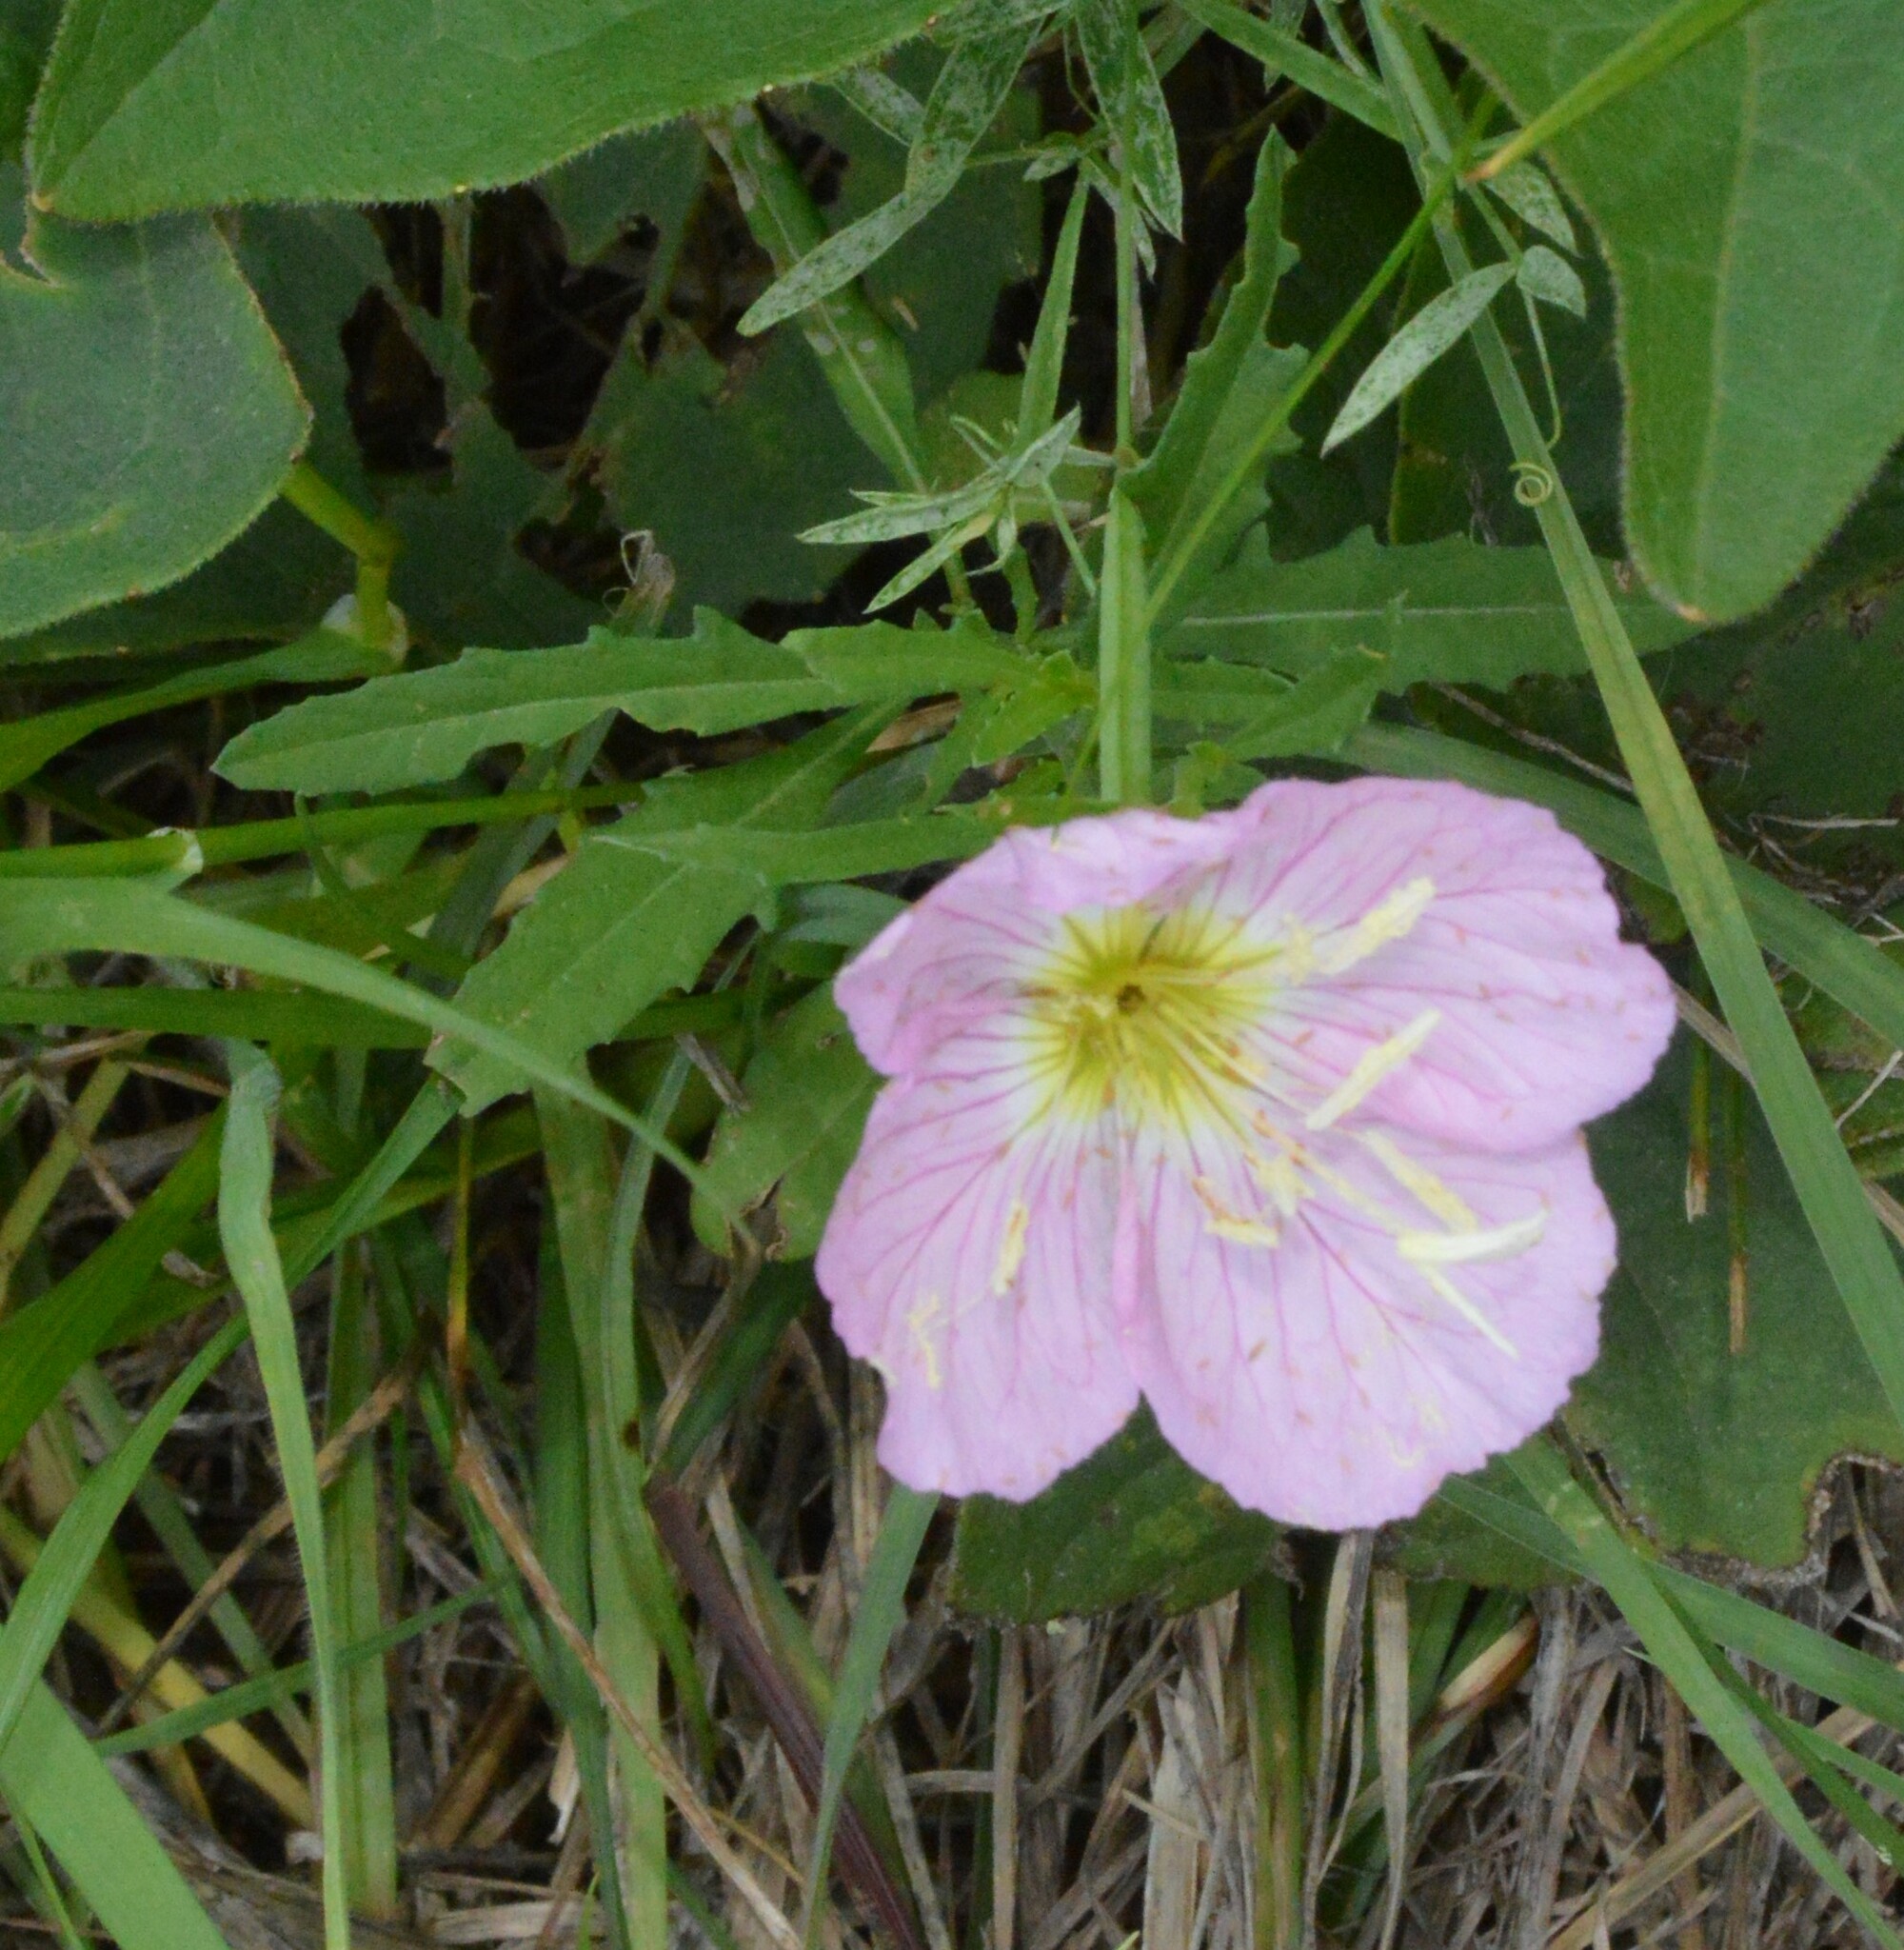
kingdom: Plantae
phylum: Tracheophyta
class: Magnoliopsida
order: Myrtales
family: Onagraceae
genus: Oenothera
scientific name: Oenothera speciosa
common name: White evening-primrose
